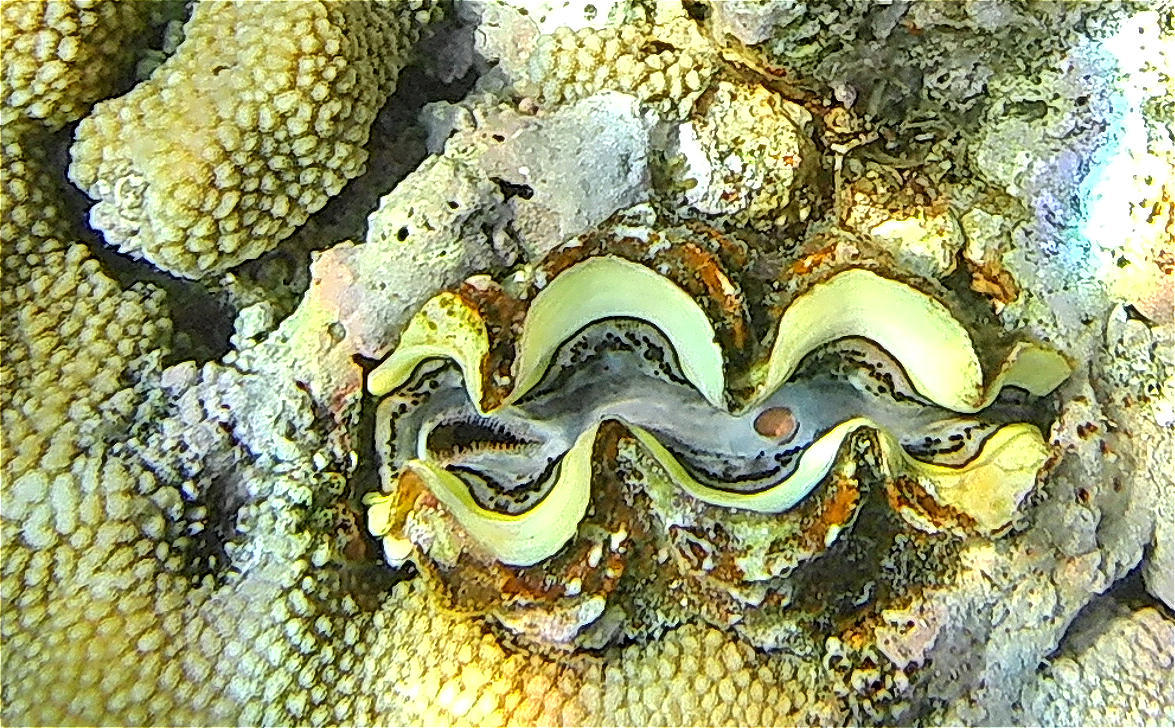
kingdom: Animalia
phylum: Mollusca
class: Bivalvia
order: Cardiida
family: Cardiidae
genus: Tridacna
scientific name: Tridacna maxima
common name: Small giant clam
